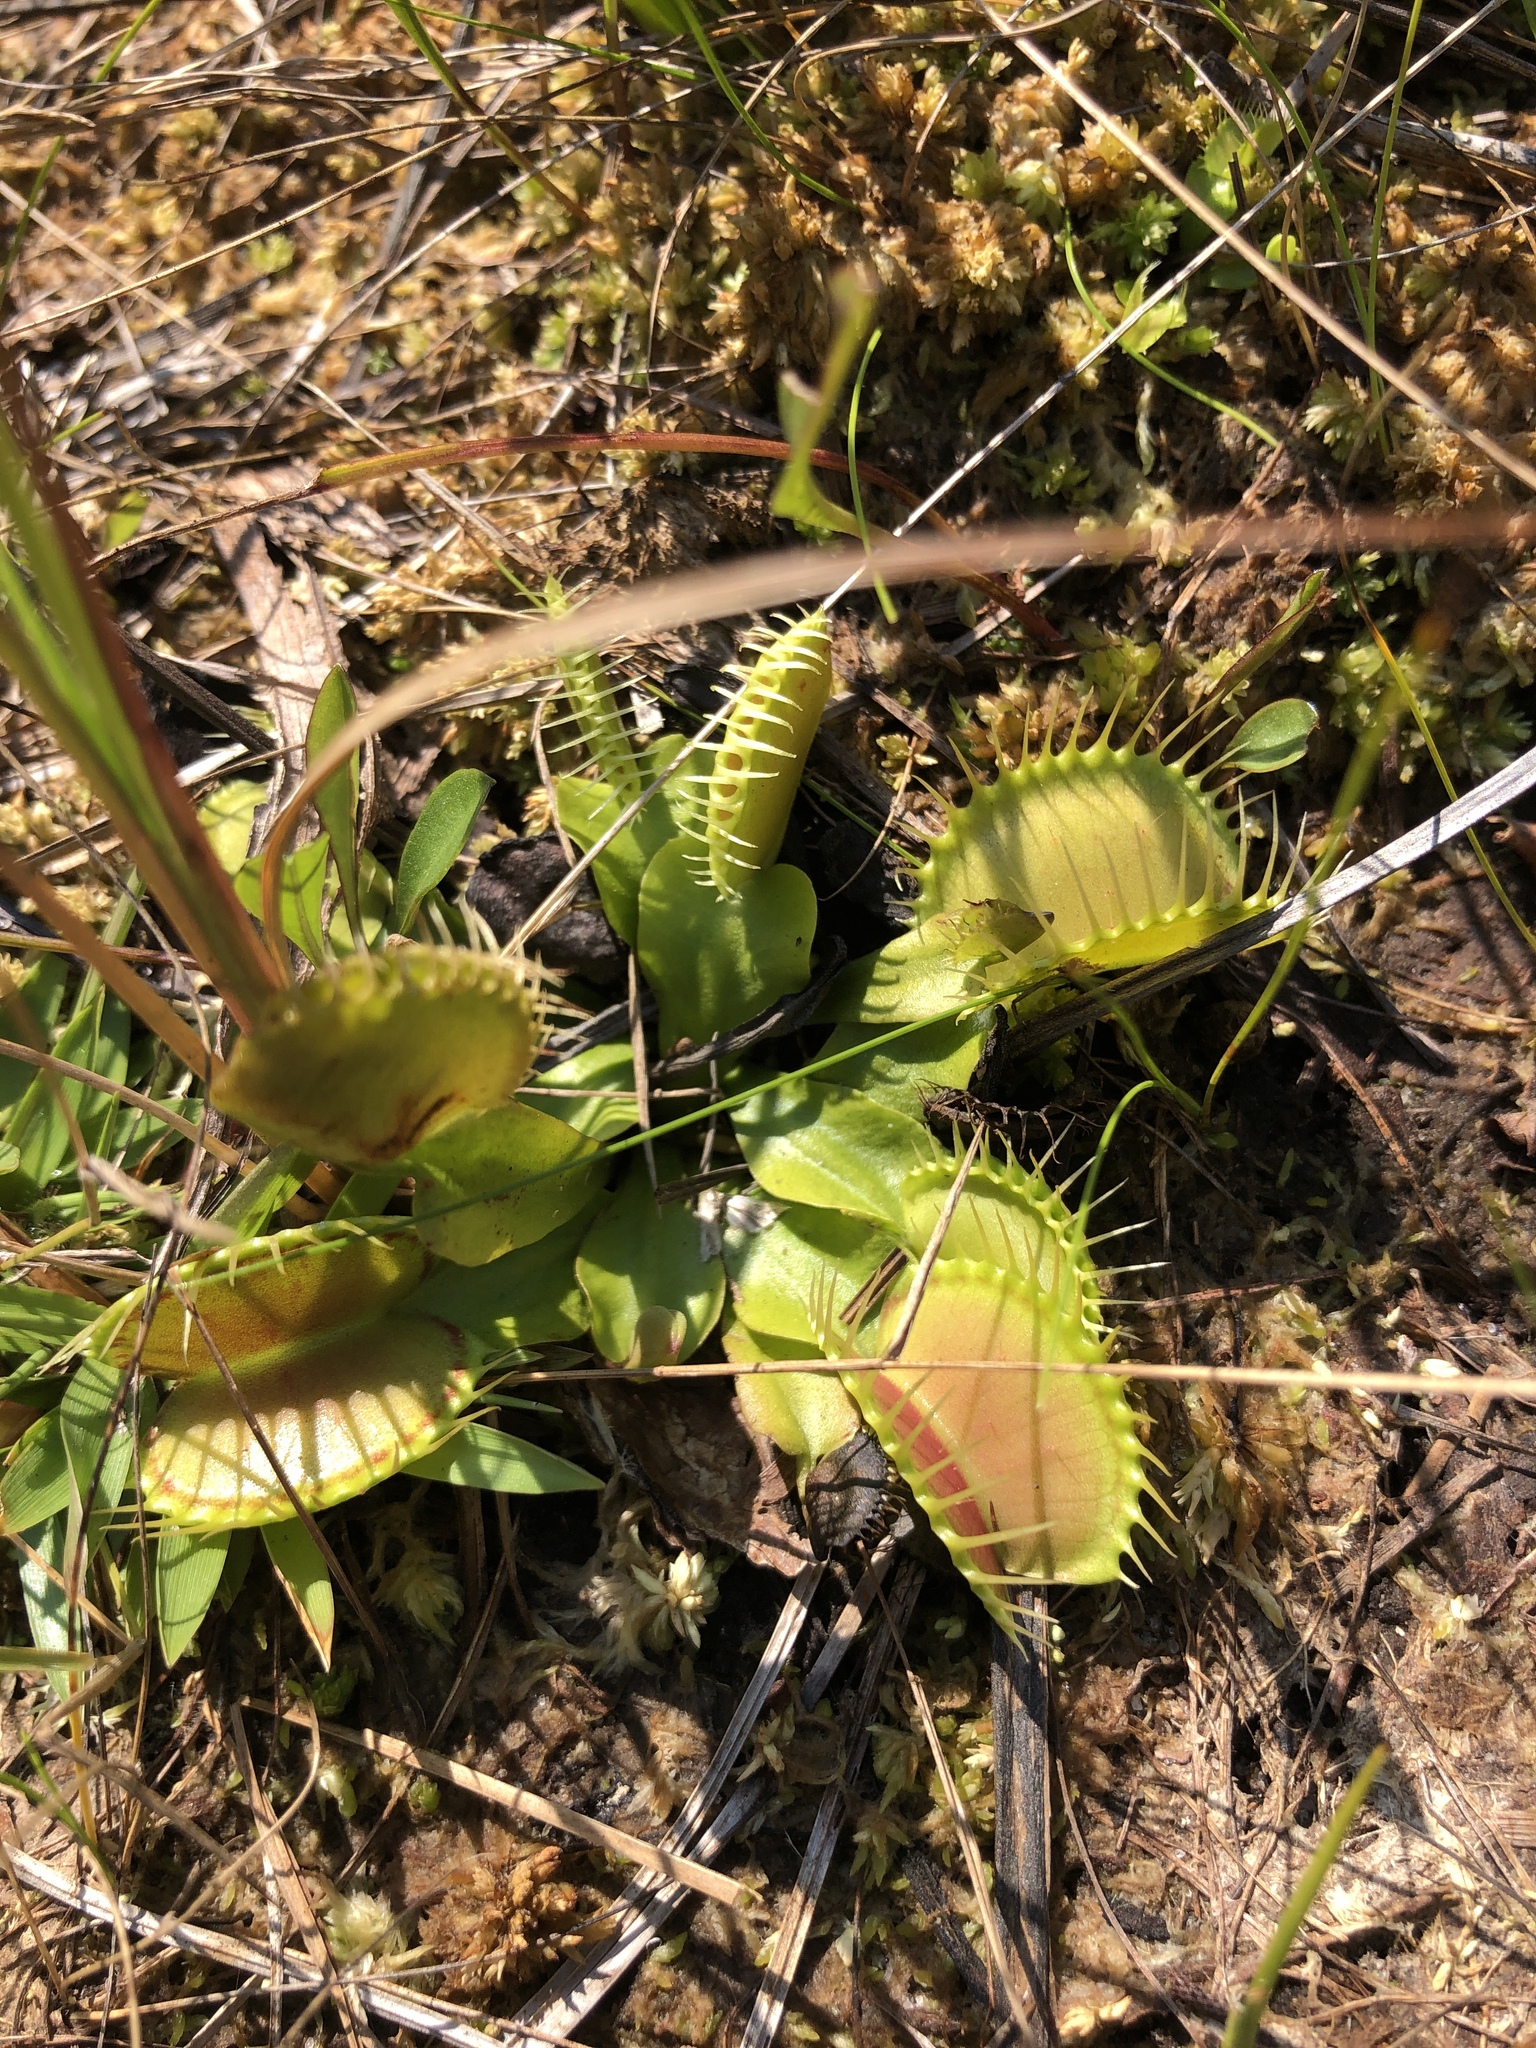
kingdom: Plantae
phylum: Tracheophyta
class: Magnoliopsida
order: Caryophyllales
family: Droseraceae
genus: Dionaea
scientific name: Dionaea muscipula
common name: Venus flytrap
